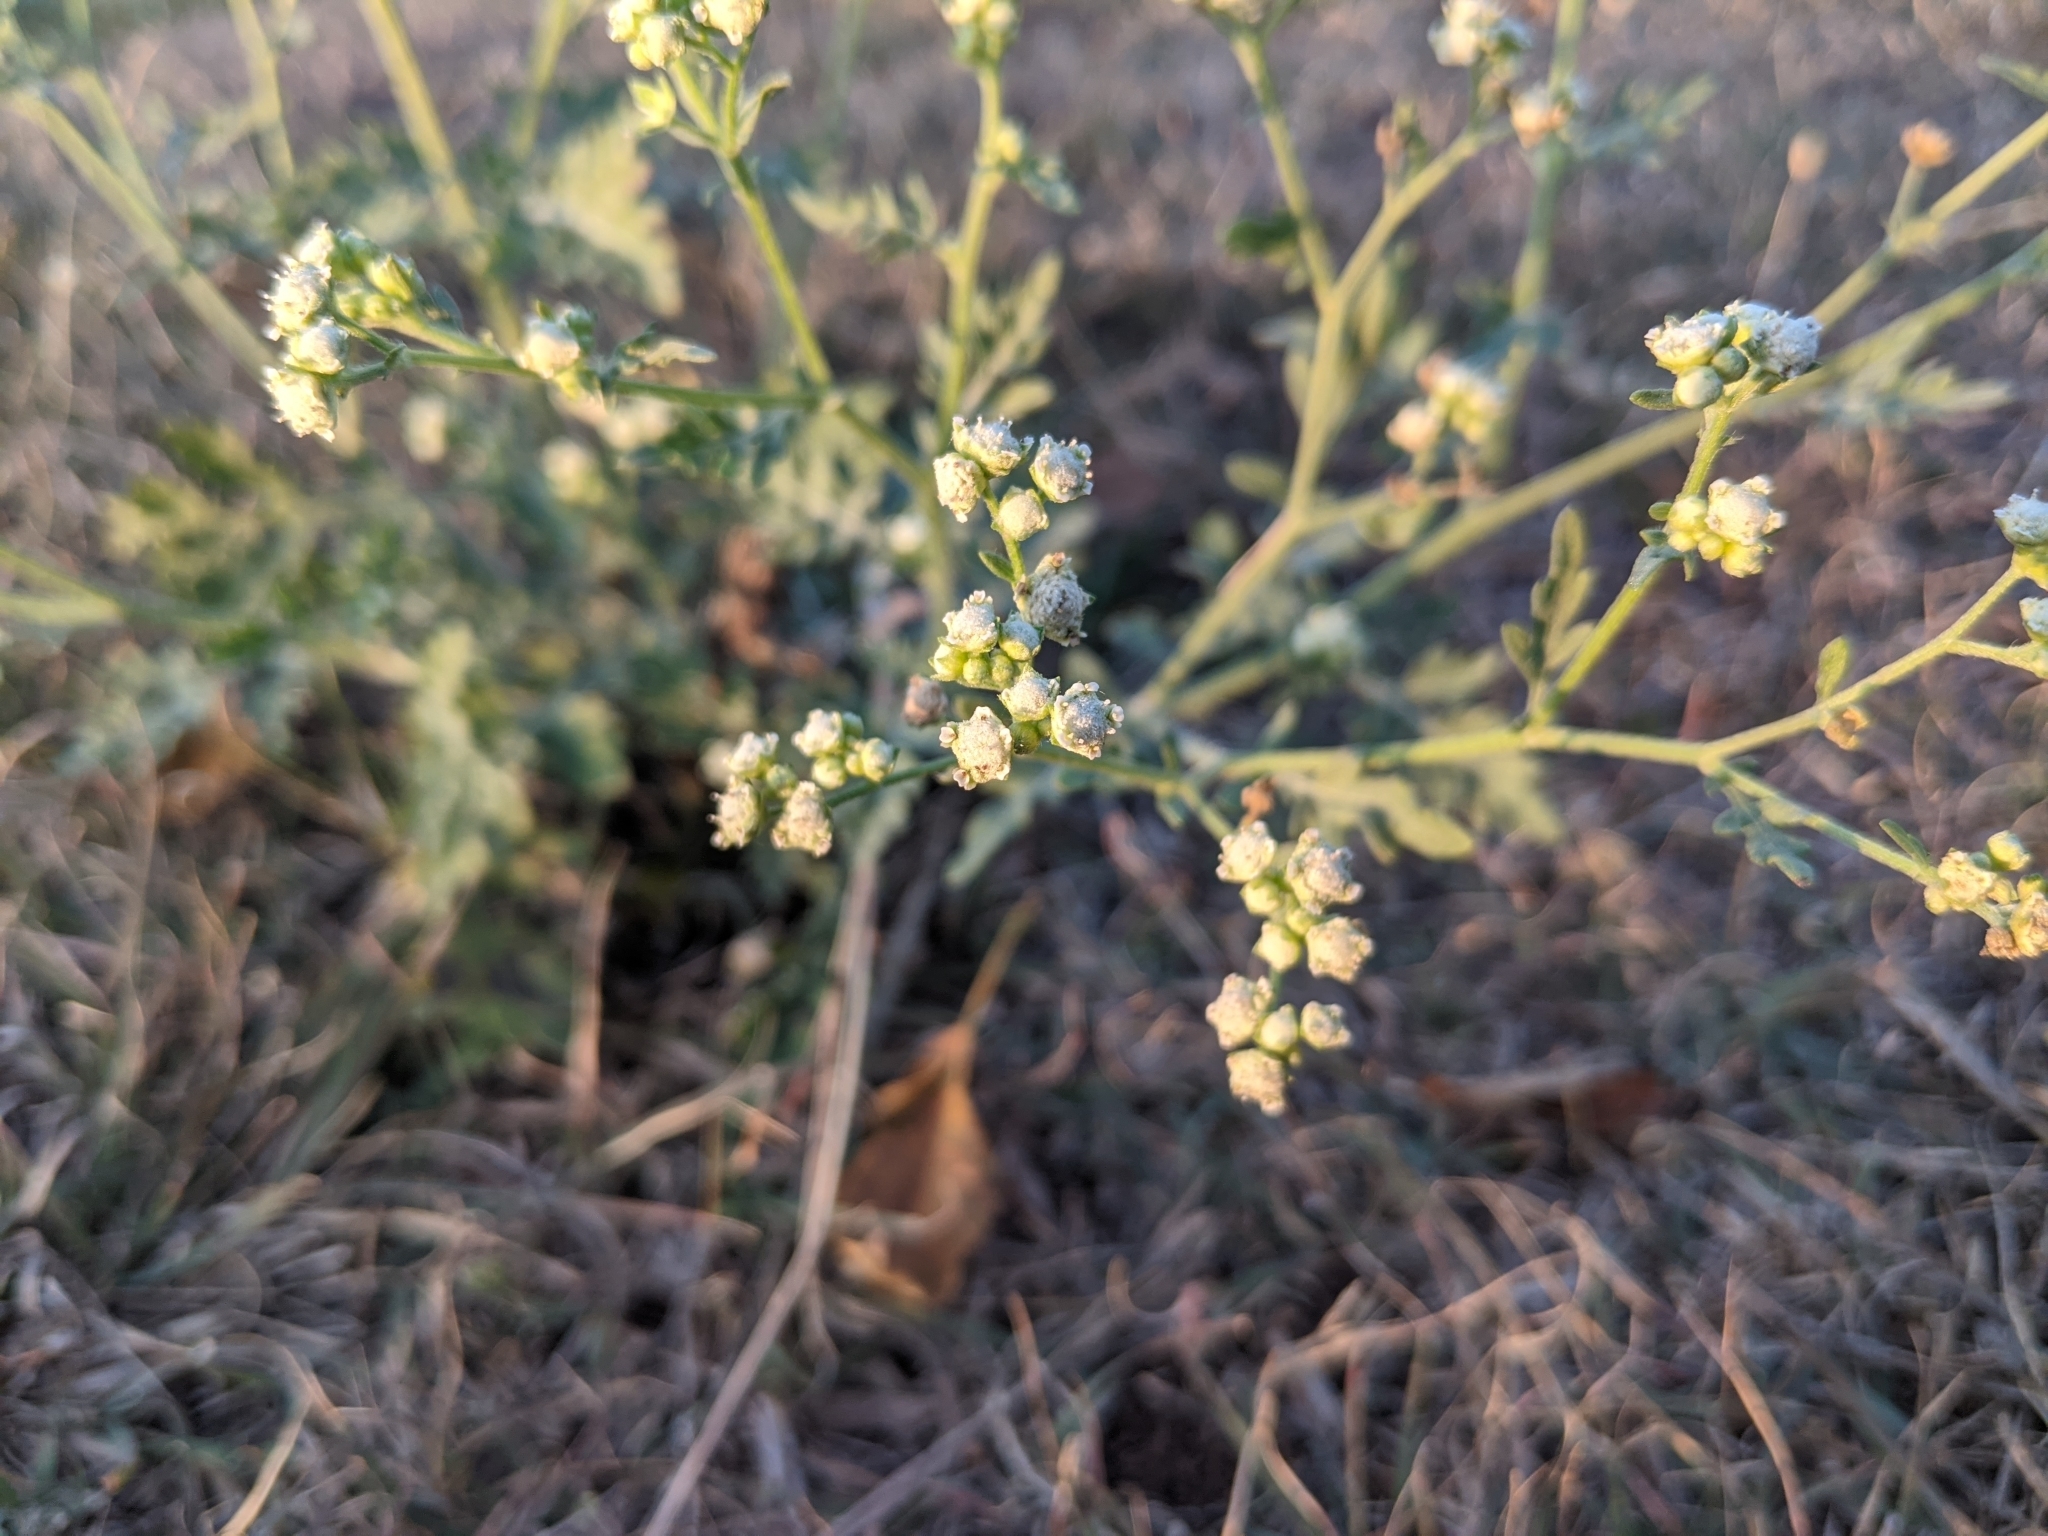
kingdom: Plantae
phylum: Tracheophyta
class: Magnoliopsida
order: Asterales
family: Asteraceae
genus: Parthenium
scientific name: Parthenium confertum
